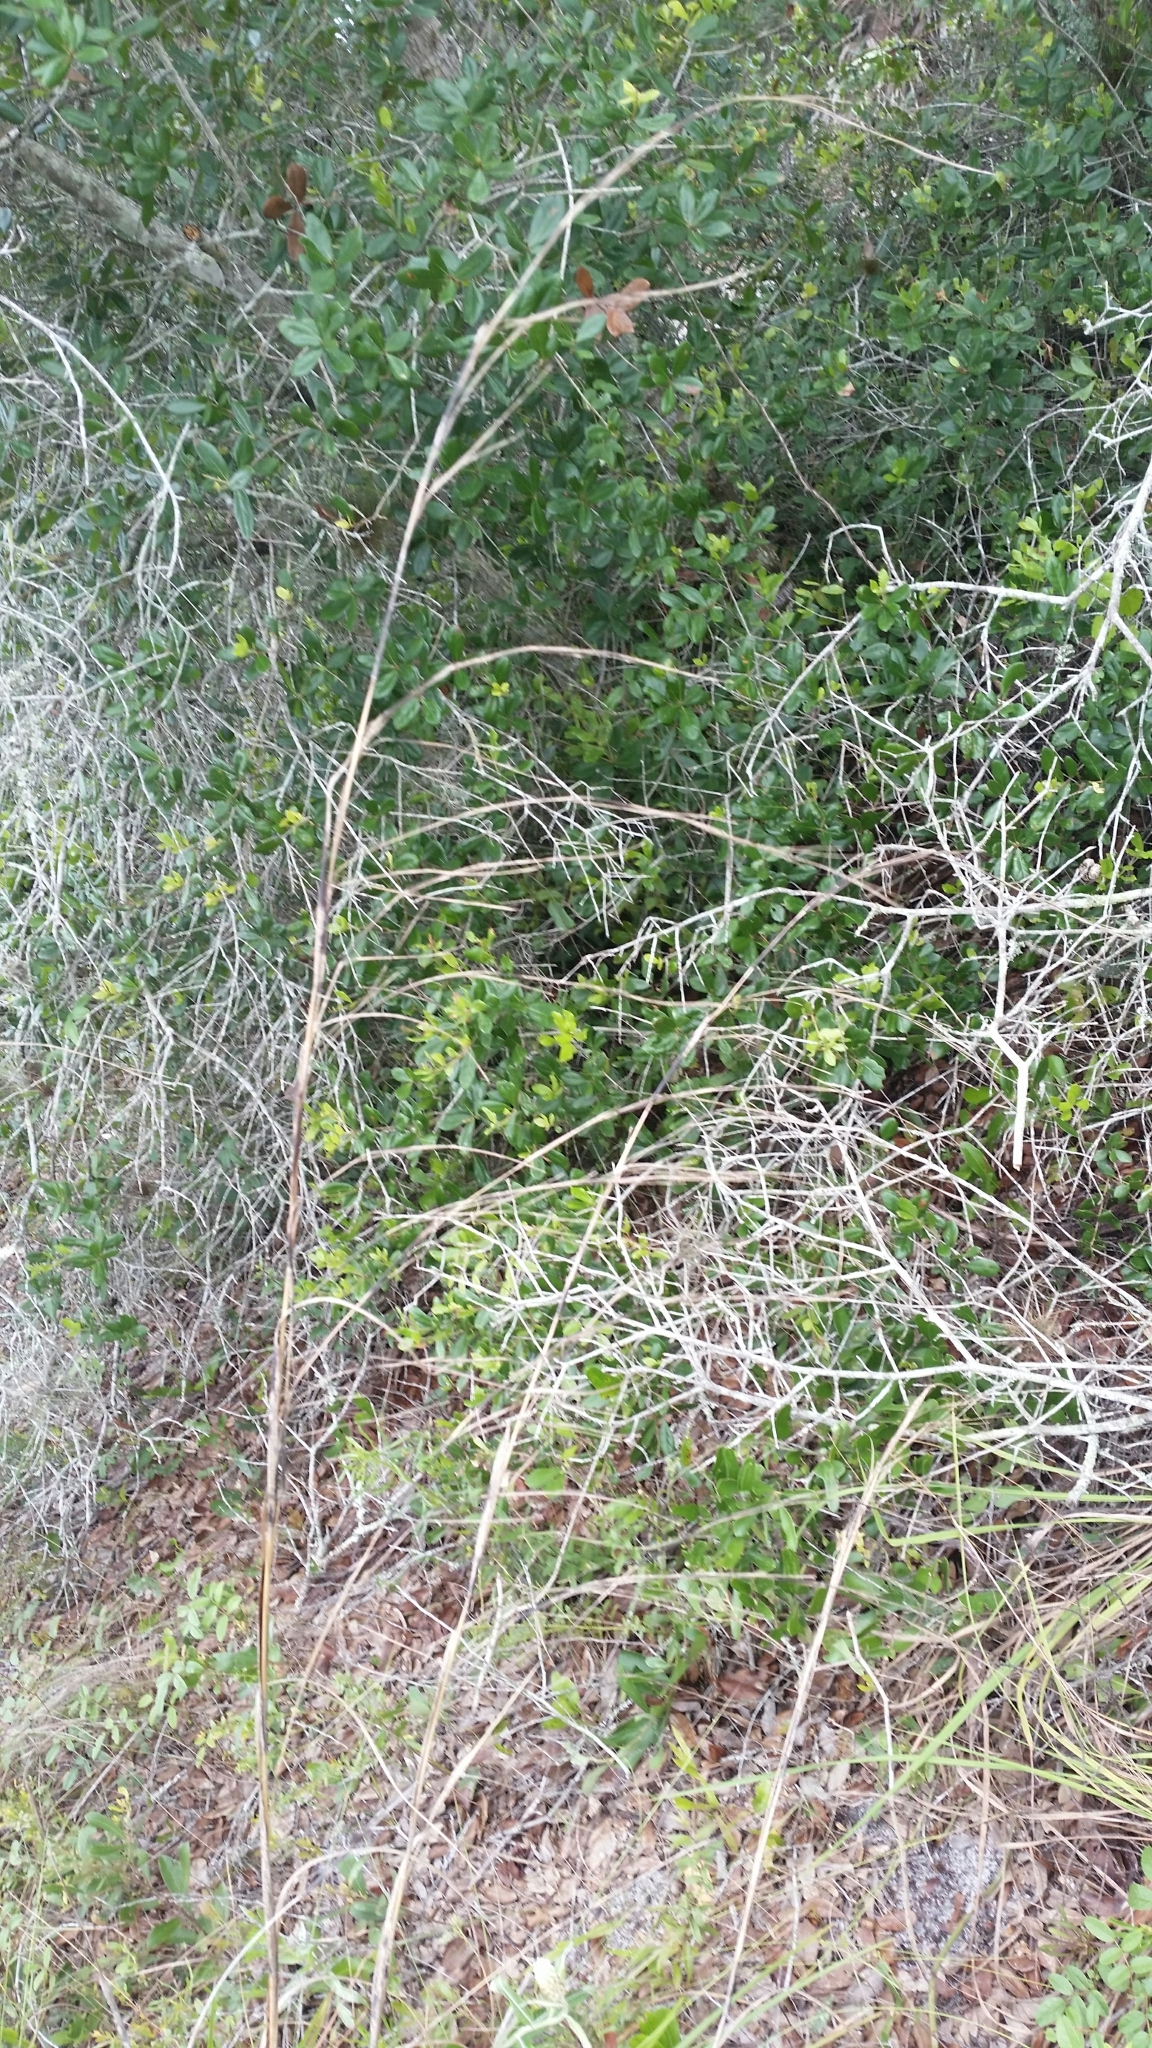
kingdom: Plantae
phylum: Tracheophyta
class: Liliopsida
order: Poales
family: Poaceae
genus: Andropogon
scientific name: Andropogon brachystachyus
